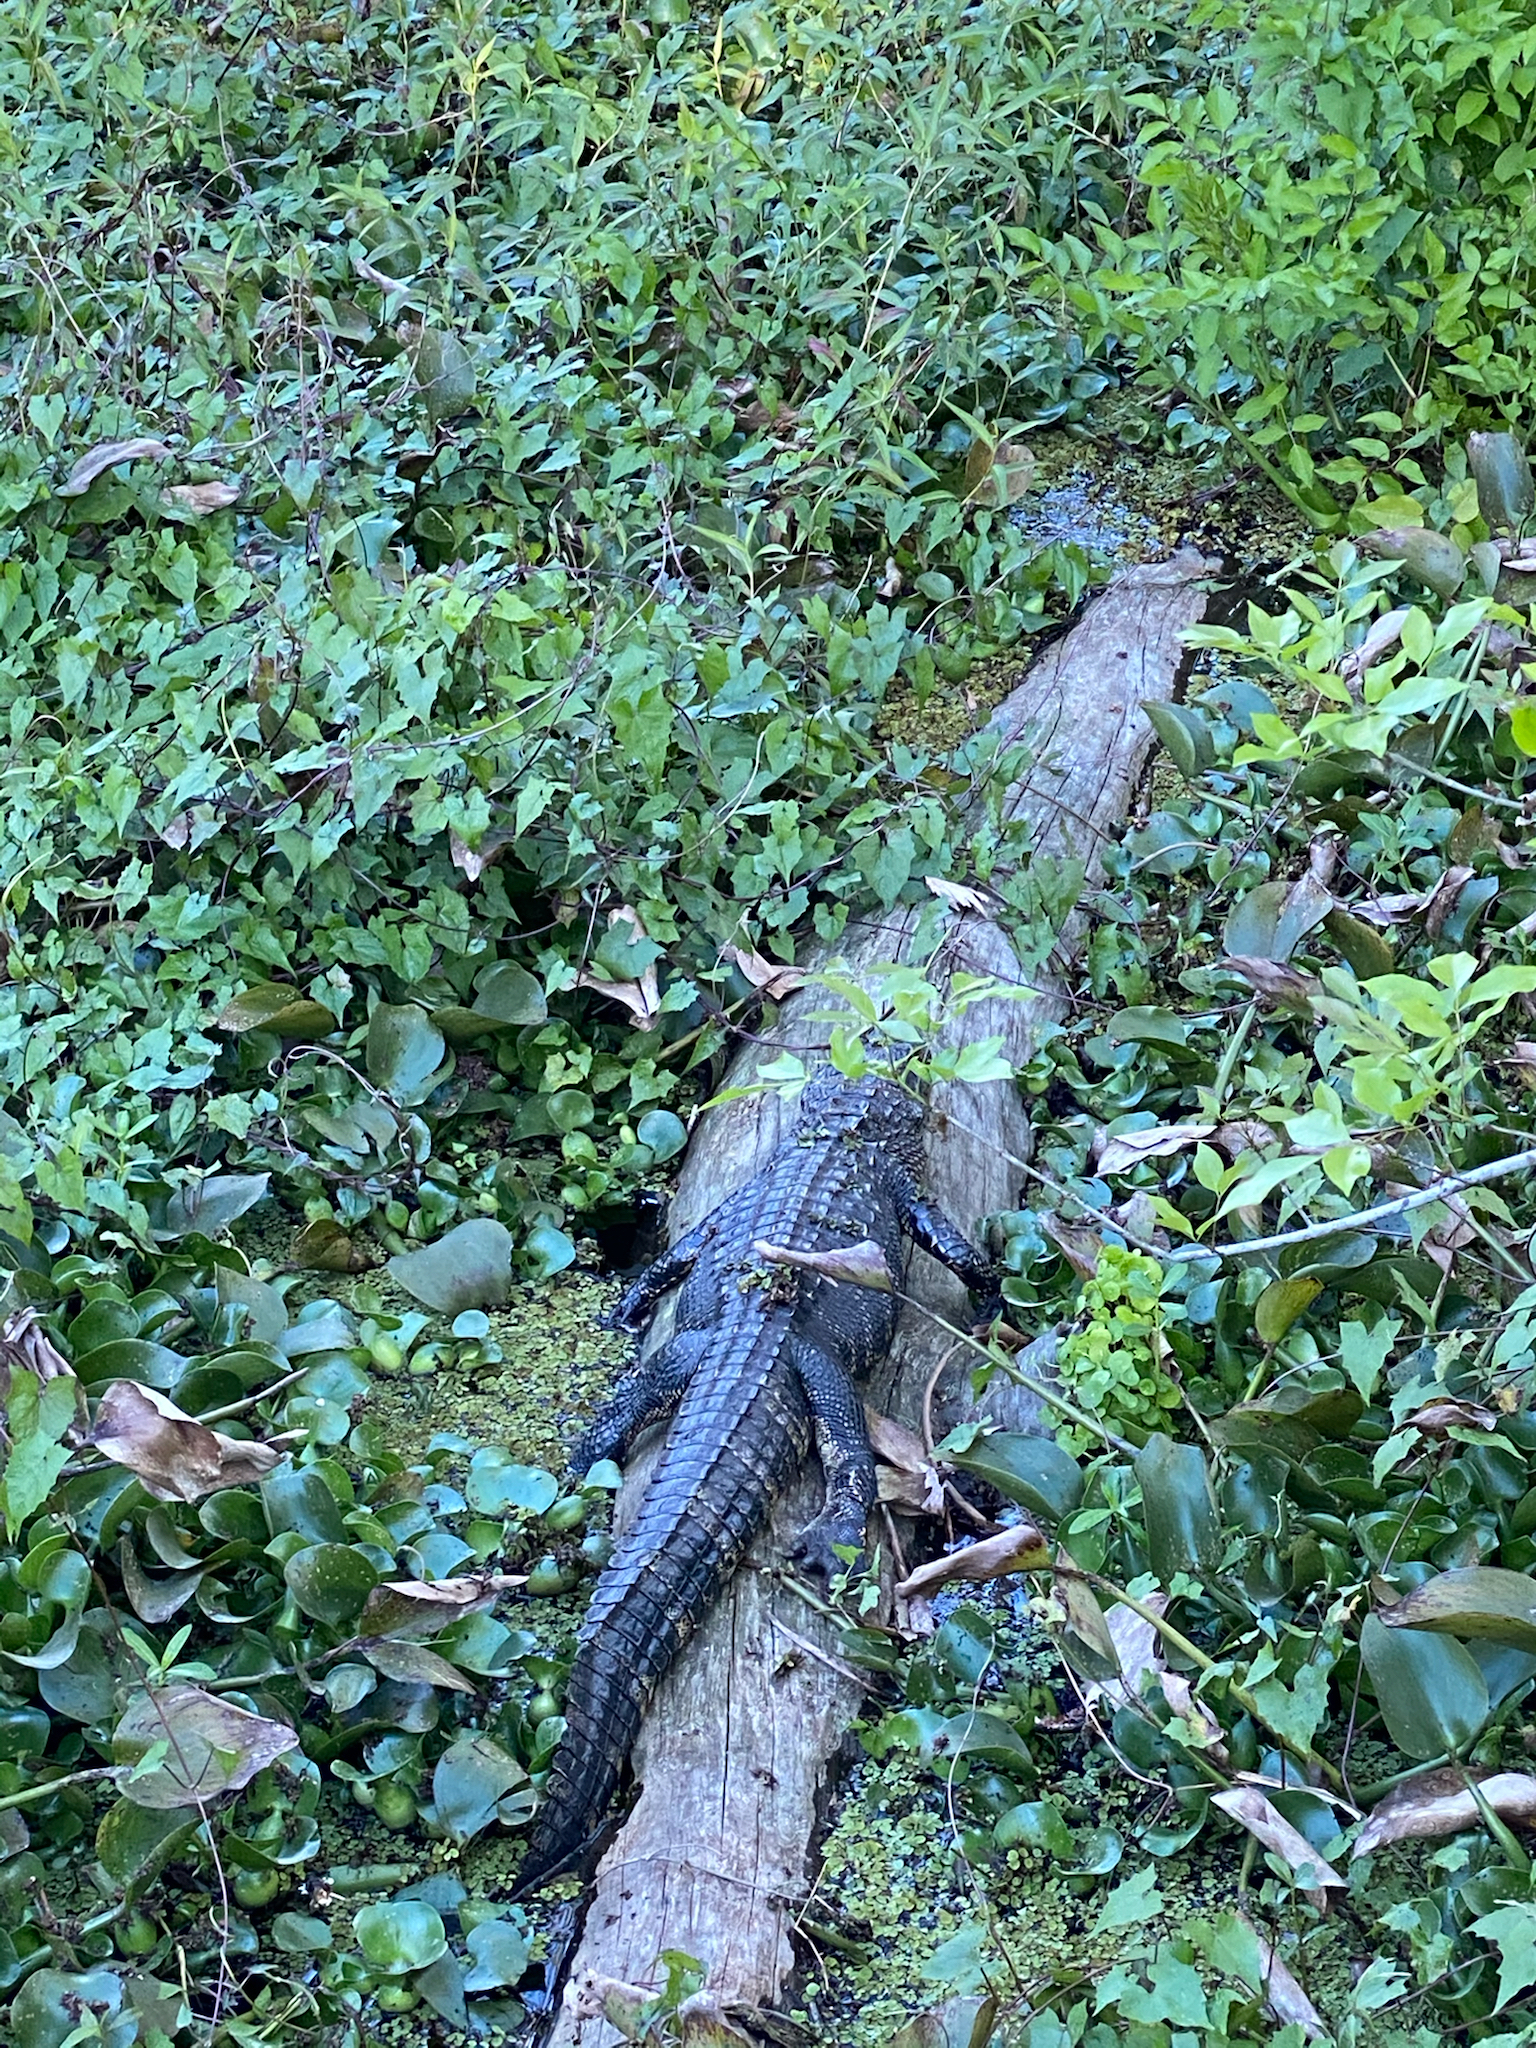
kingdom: Animalia
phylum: Chordata
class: Crocodylia
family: Alligatoridae
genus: Alligator
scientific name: Alligator mississippiensis
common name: American alligator
